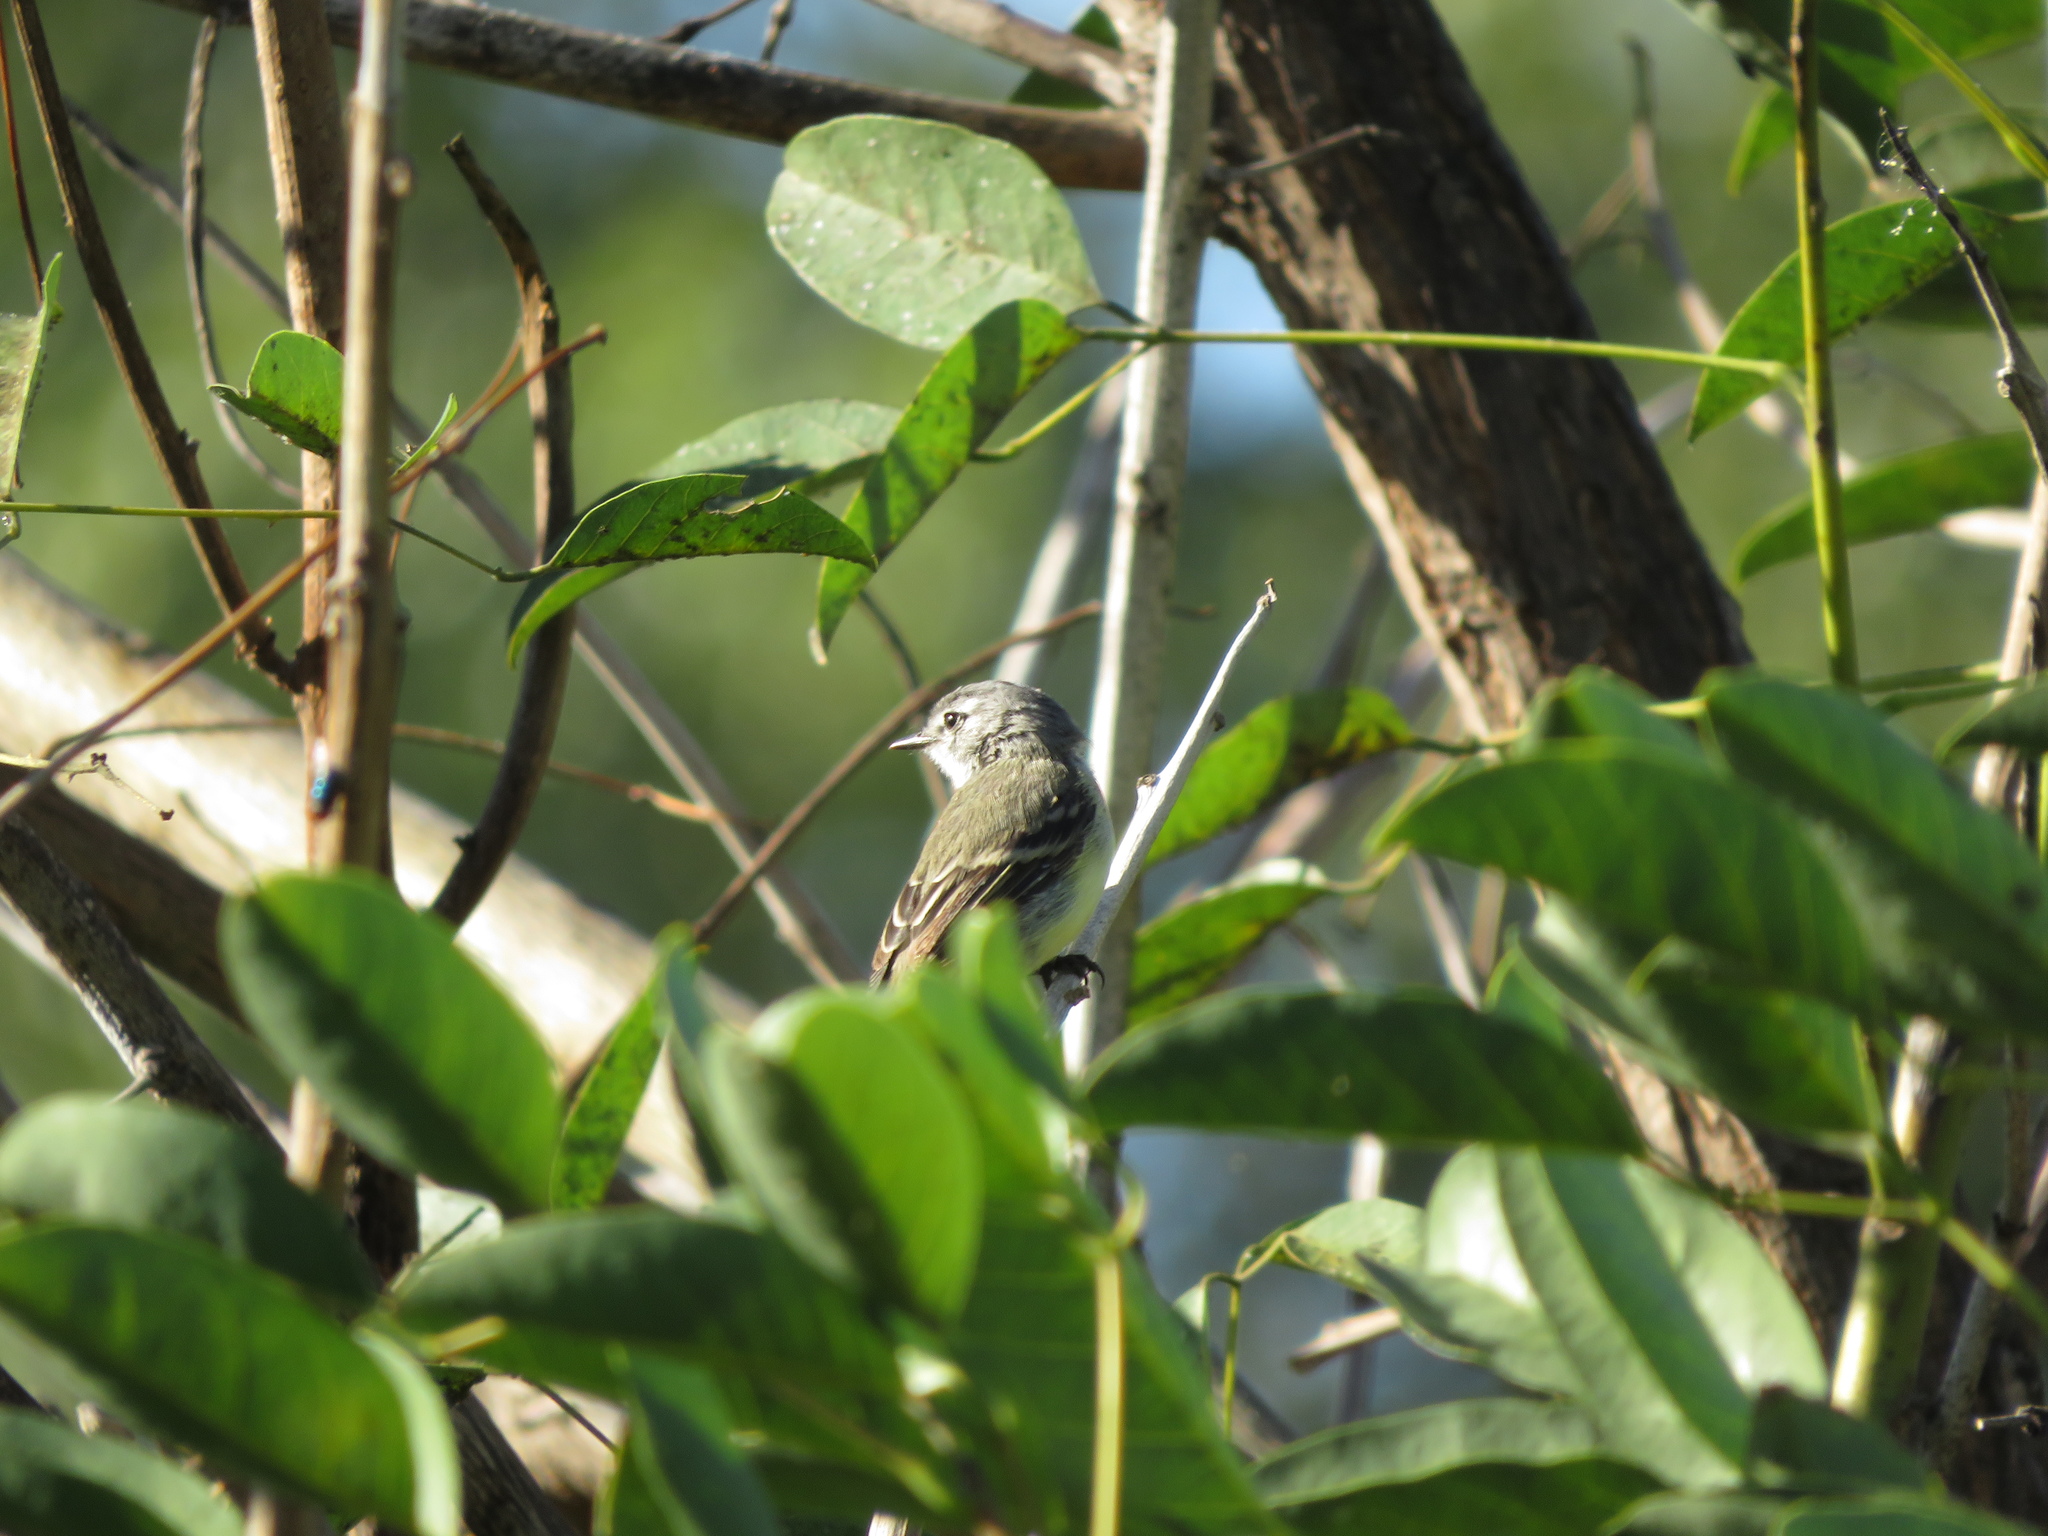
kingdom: Animalia
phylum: Chordata
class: Aves
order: Passeriformes
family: Tyrannidae
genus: Serpophaga
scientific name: Serpophaga subcristata
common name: White-crested tyrannulet
